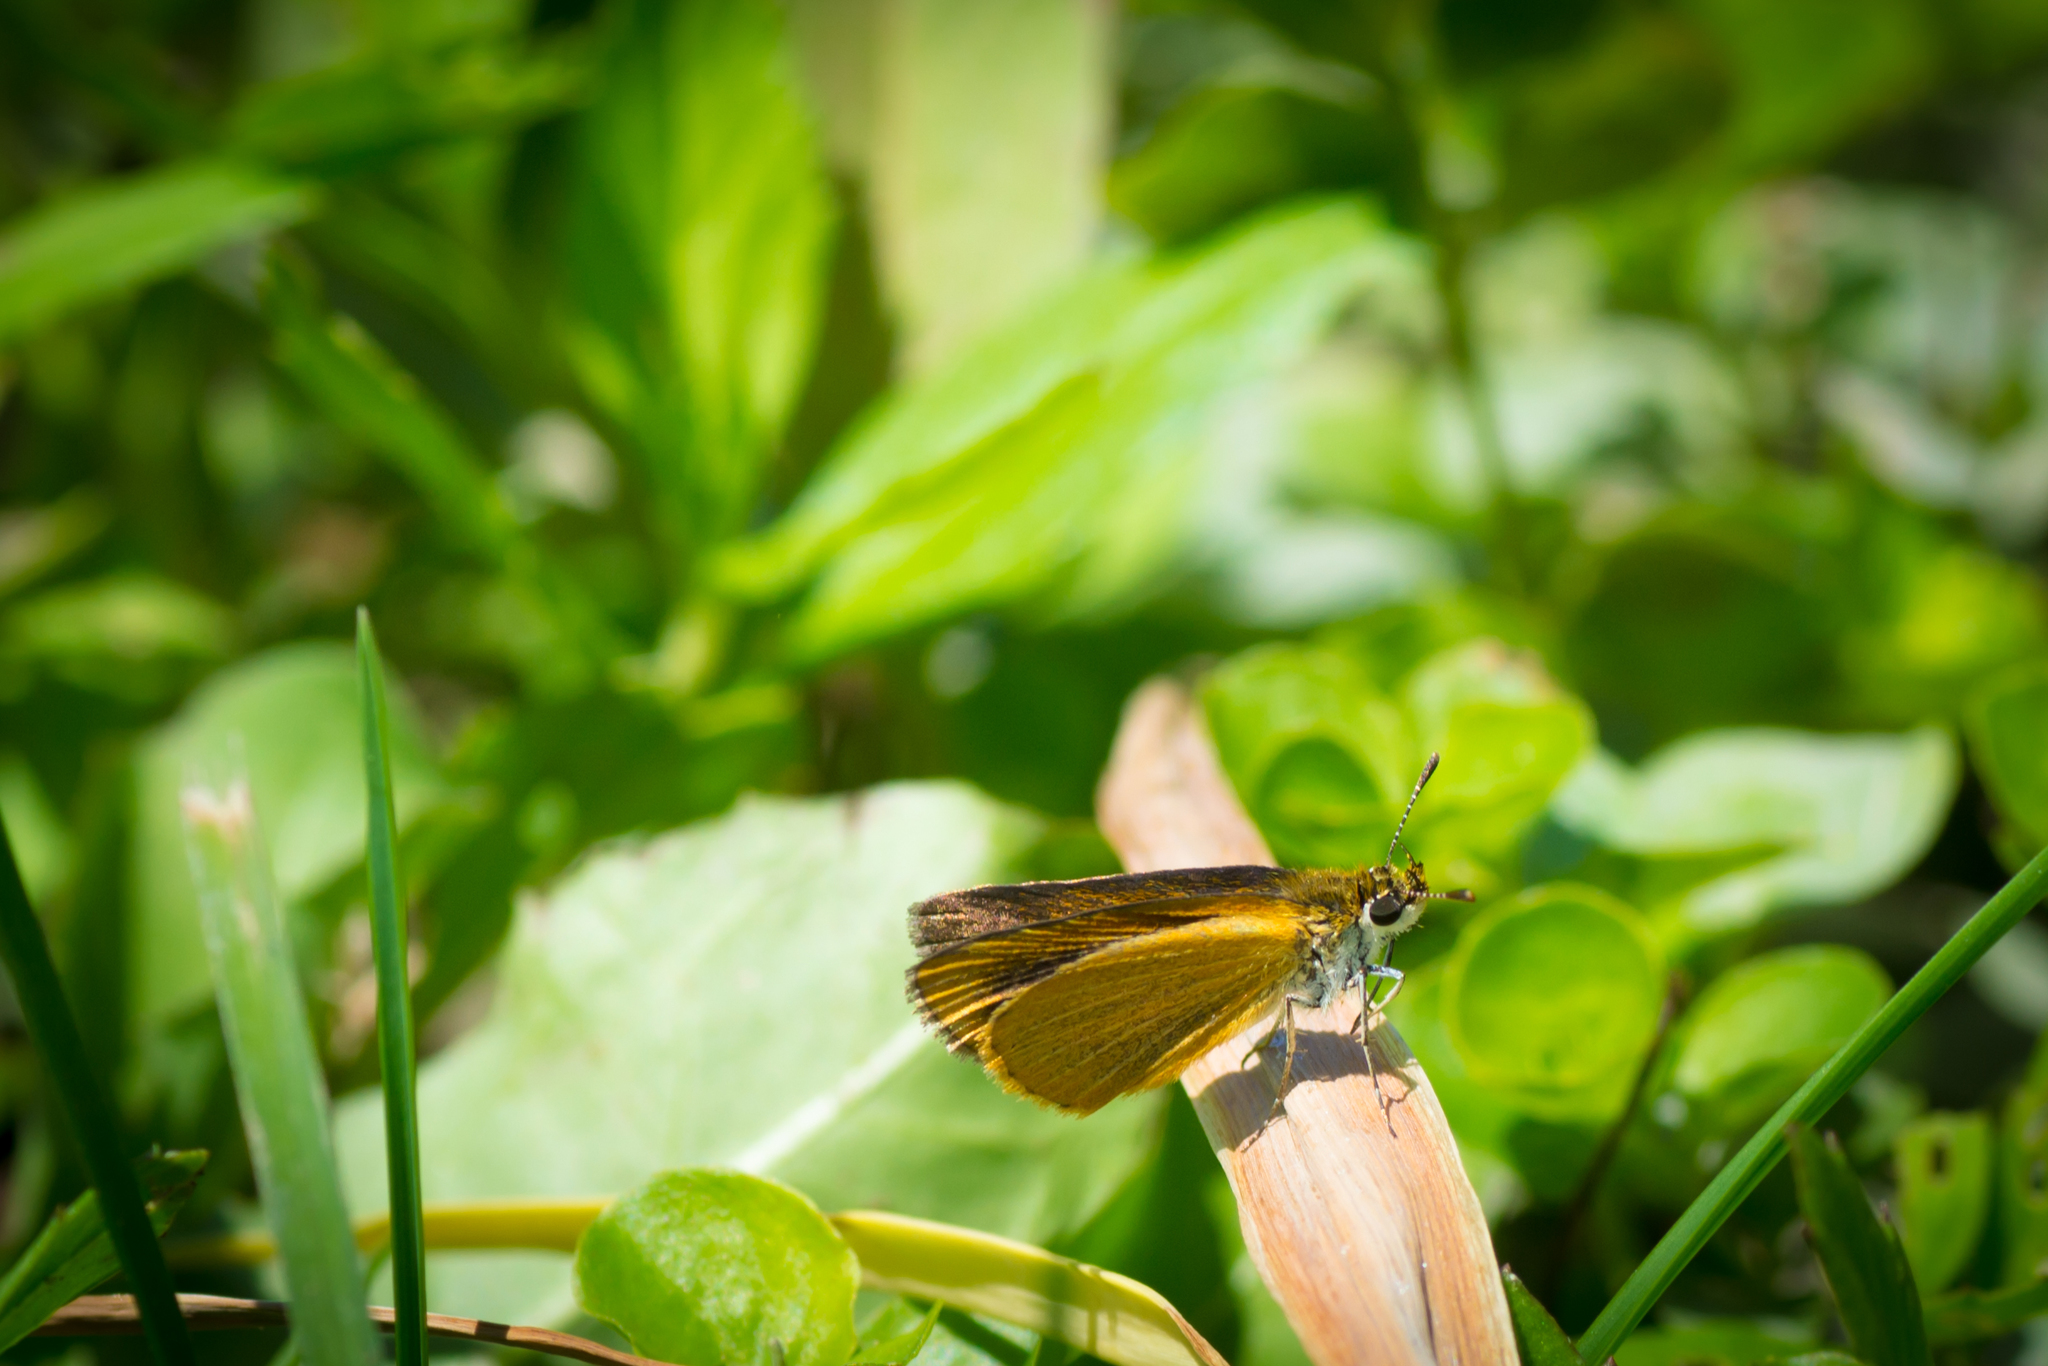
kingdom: Animalia
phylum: Arthropoda
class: Insecta
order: Lepidoptera
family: Hesperiidae
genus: Ancyloxypha
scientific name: Ancyloxypha numitor
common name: Least skipper
